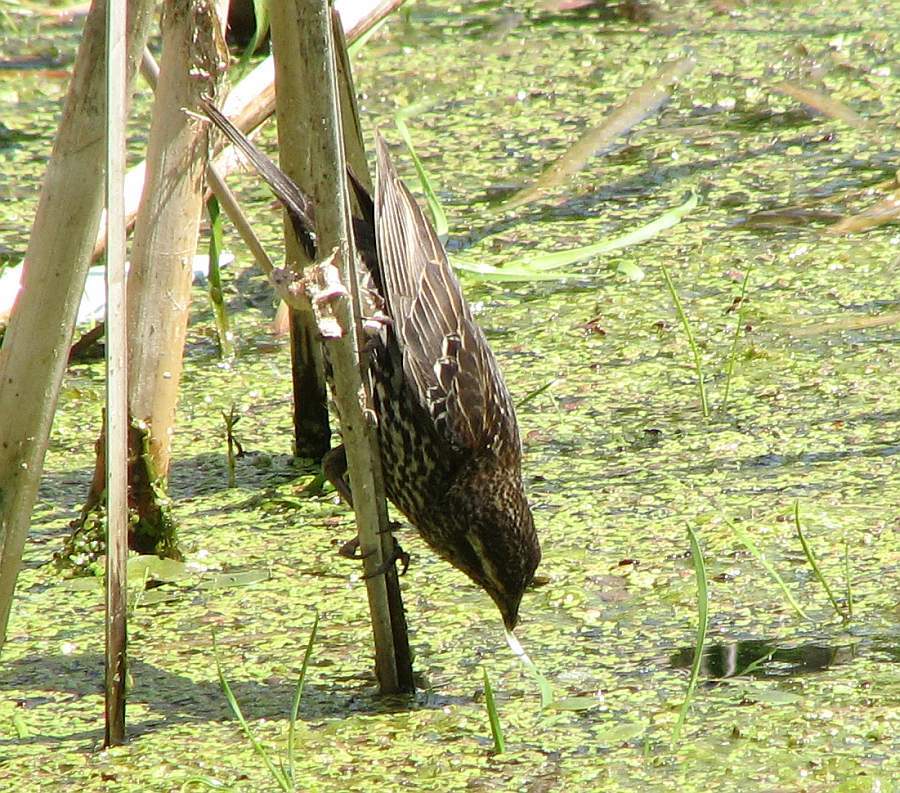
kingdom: Animalia
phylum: Chordata
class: Aves
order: Passeriformes
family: Icteridae
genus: Agelaius
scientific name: Agelaius phoeniceus
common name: Red-winged blackbird
